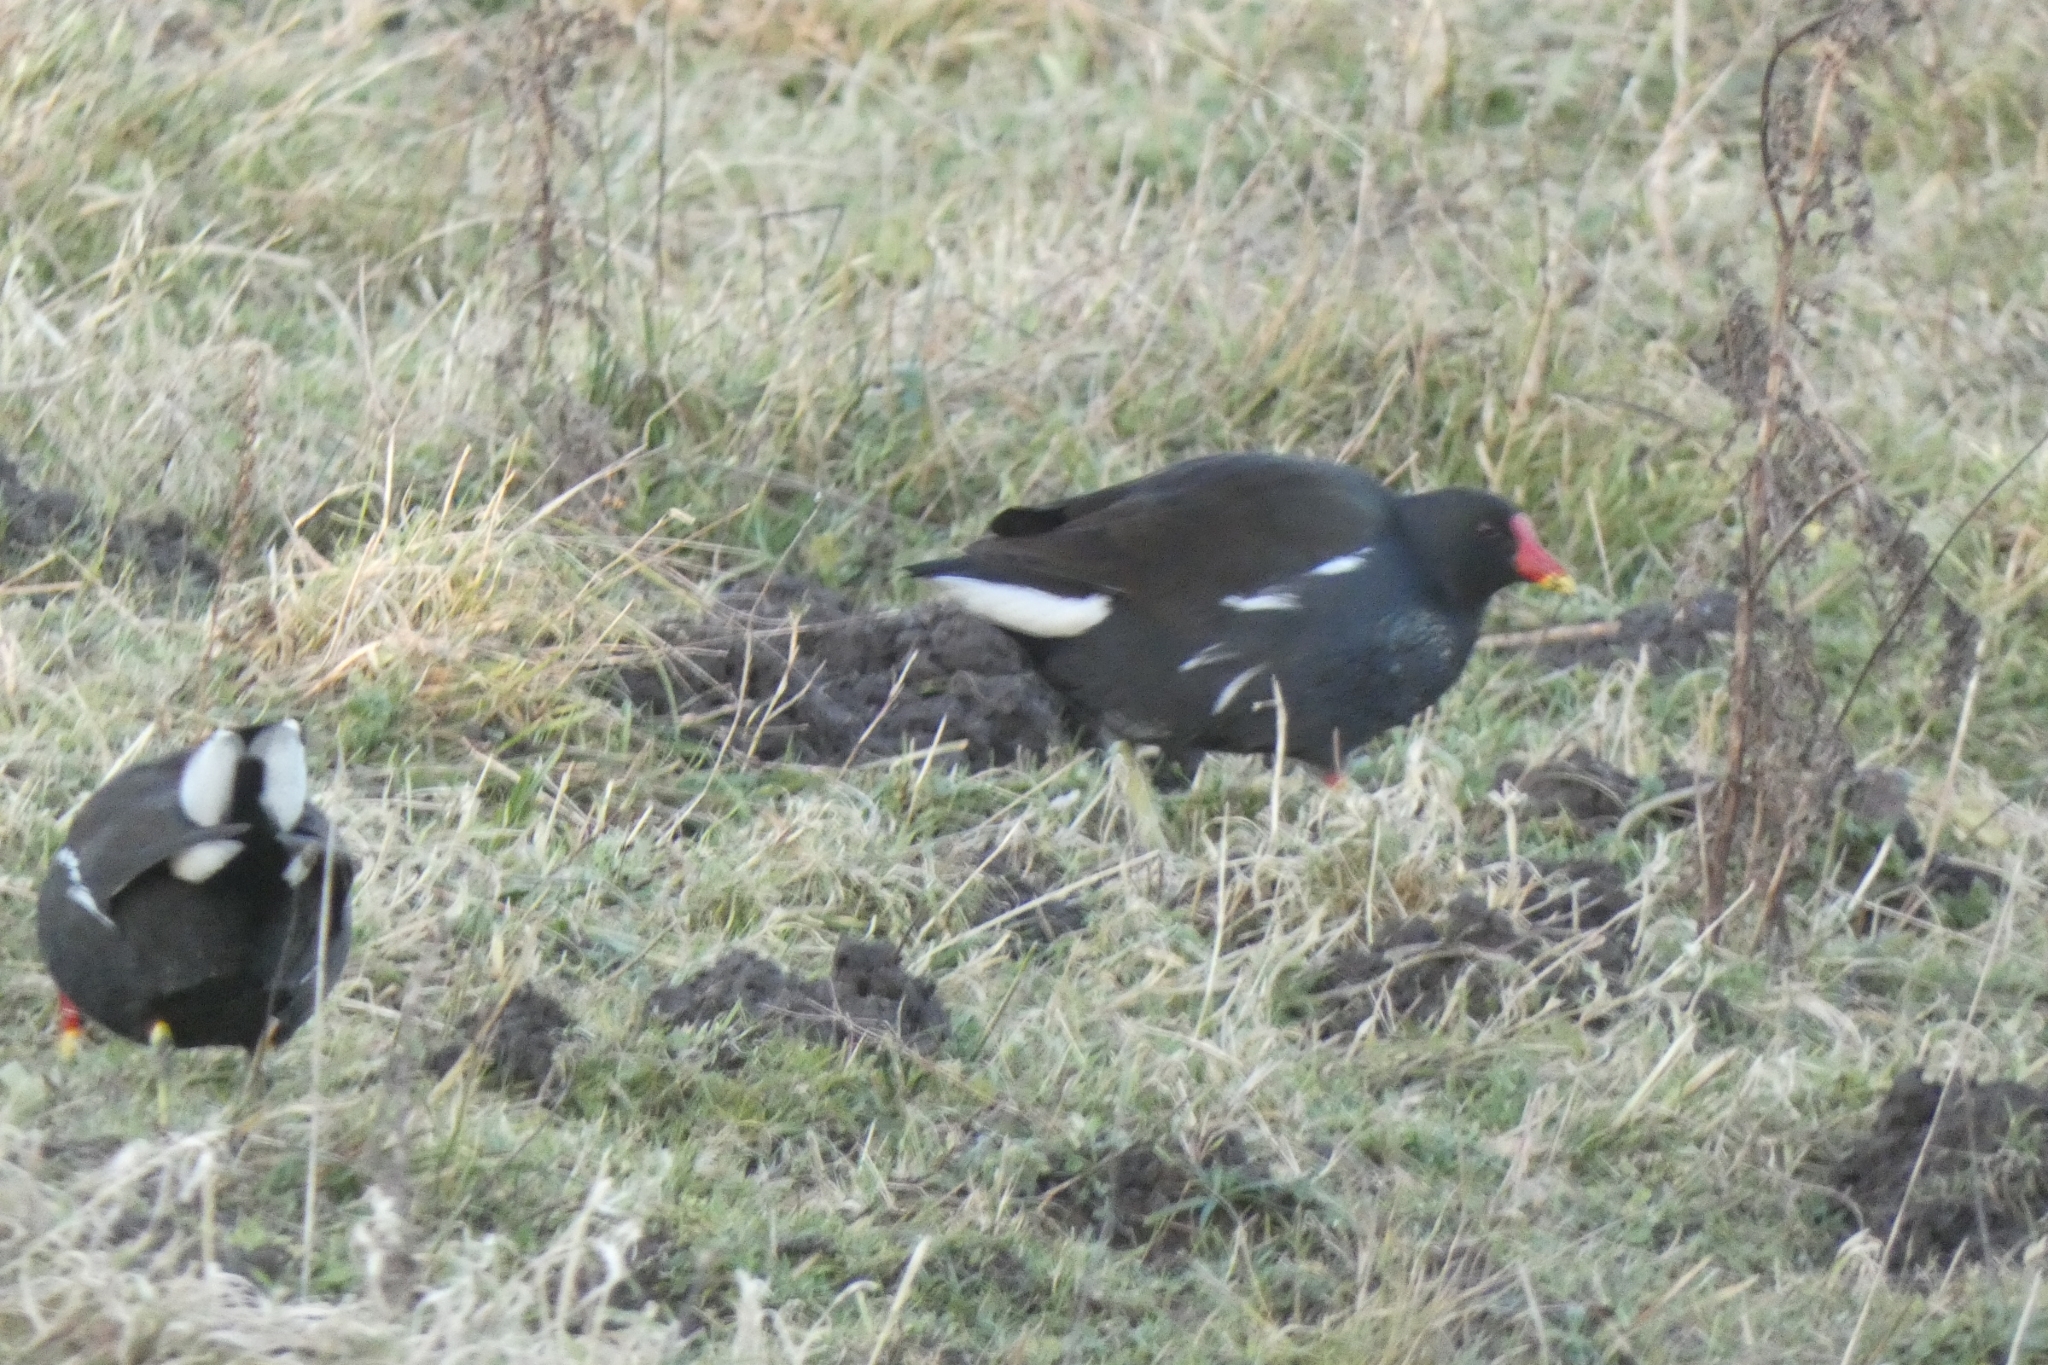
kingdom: Animalia
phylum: Chordata
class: Aves
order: Gruiformes
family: Rallidae
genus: Gallinula
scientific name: Gallinula chloropus
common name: Common moorhen
